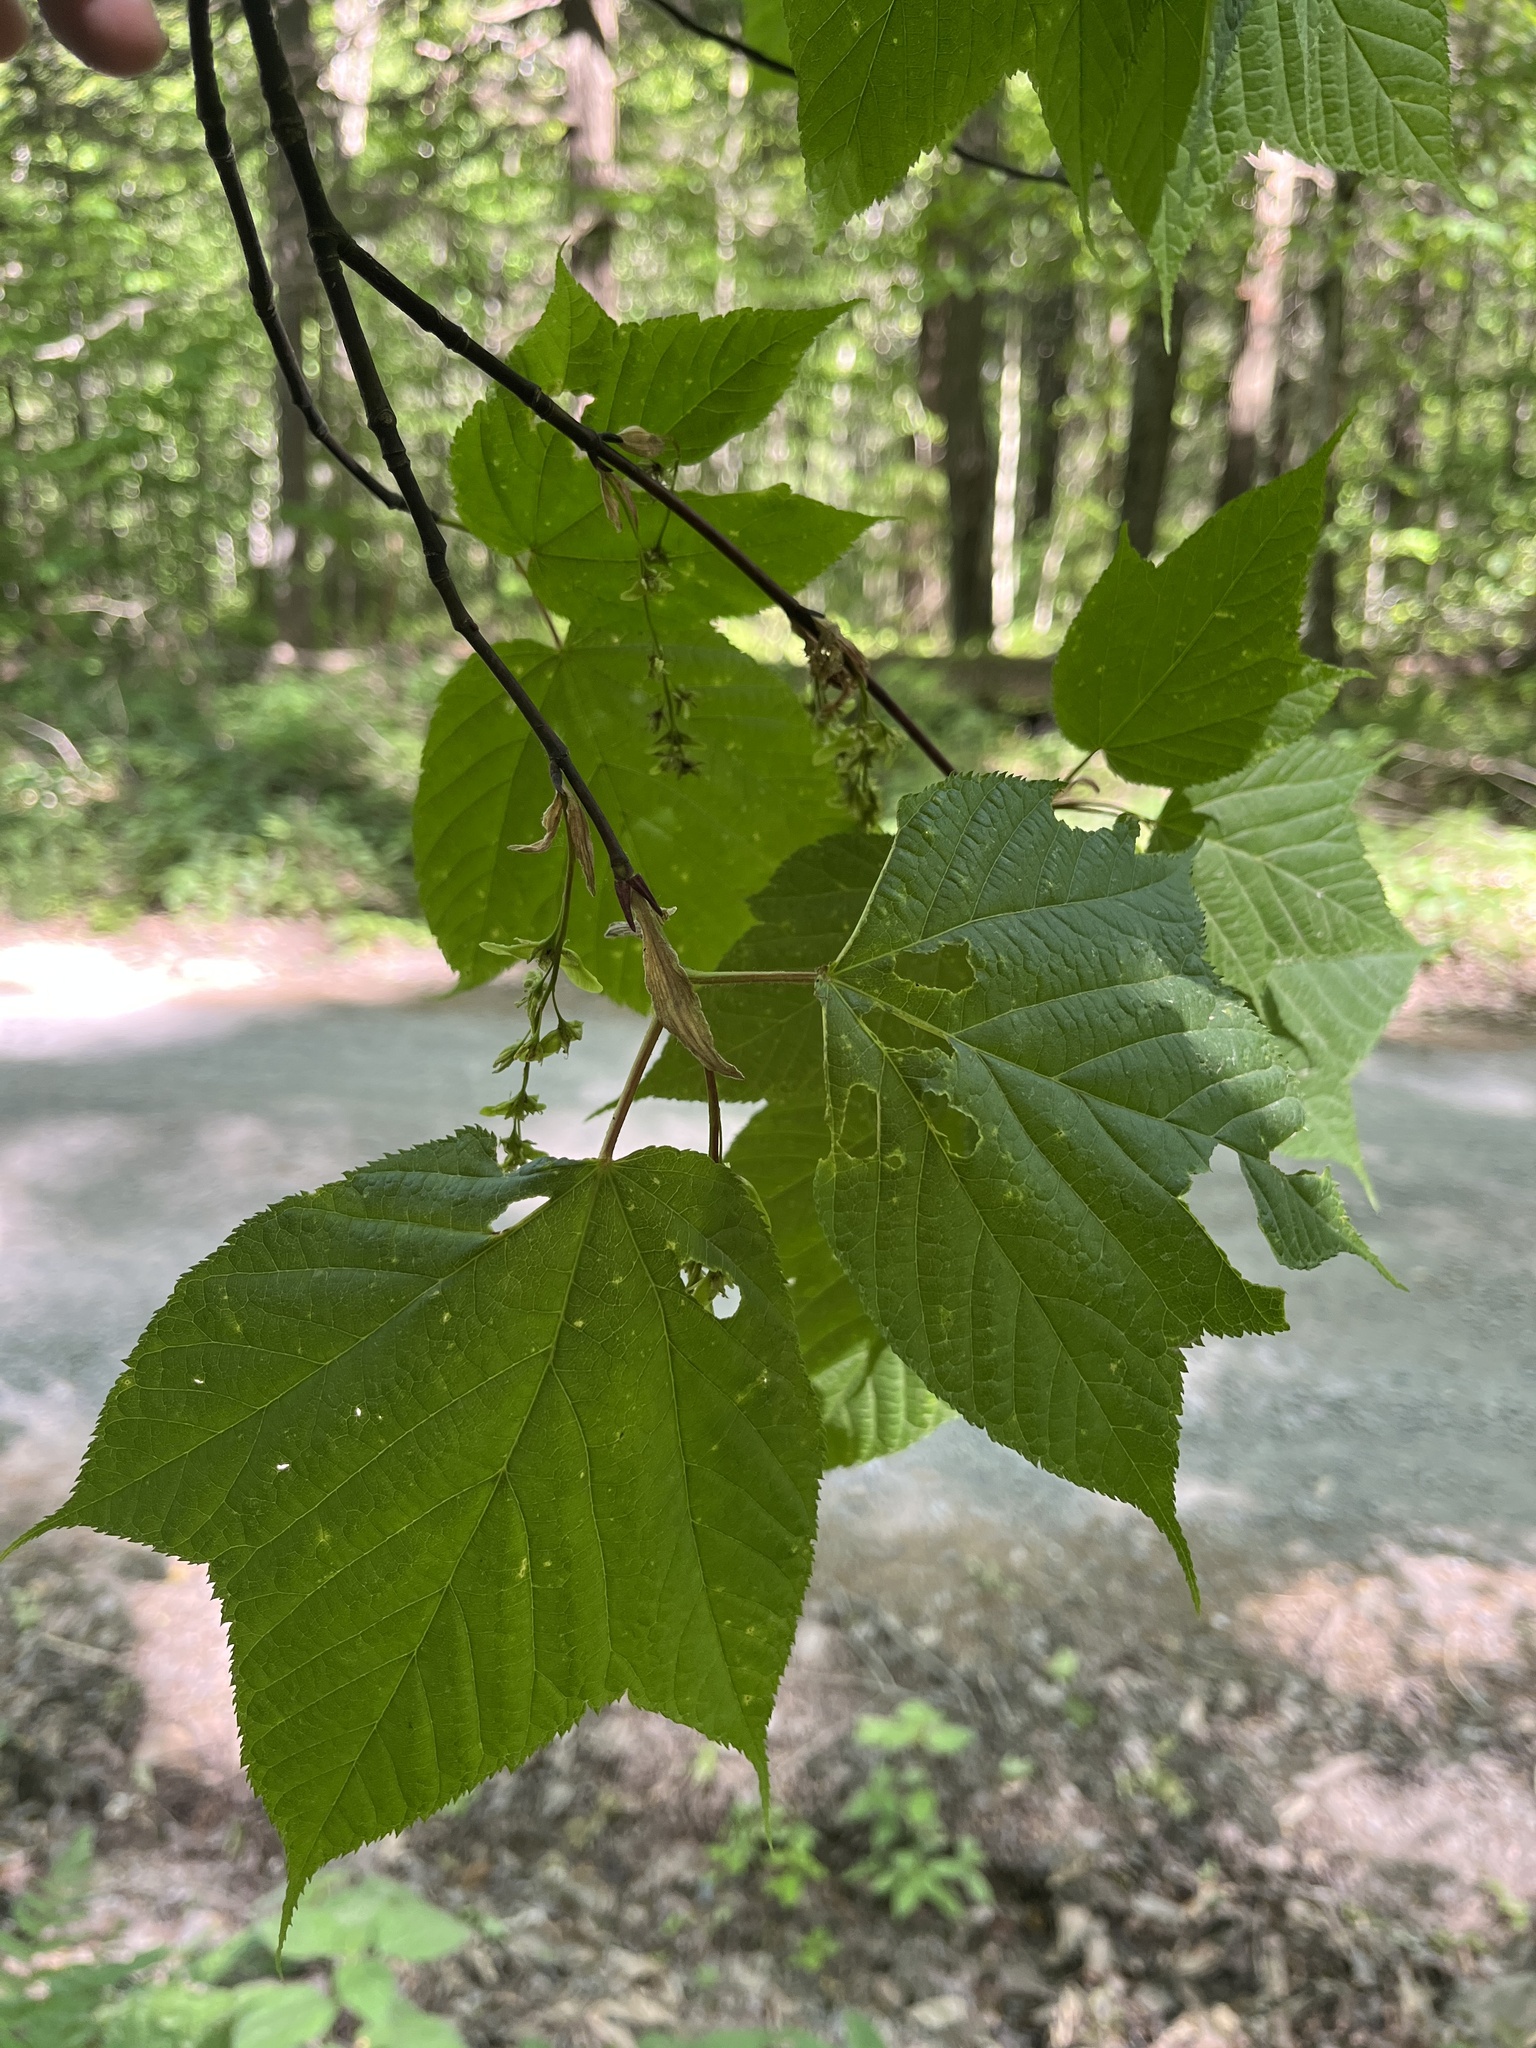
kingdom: Plantae
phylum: Tracheophyta
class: Magnoliopsida
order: Sapindales
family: Sapindaceae
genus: Acer
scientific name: Acer pensylvanicum
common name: Moosewood
